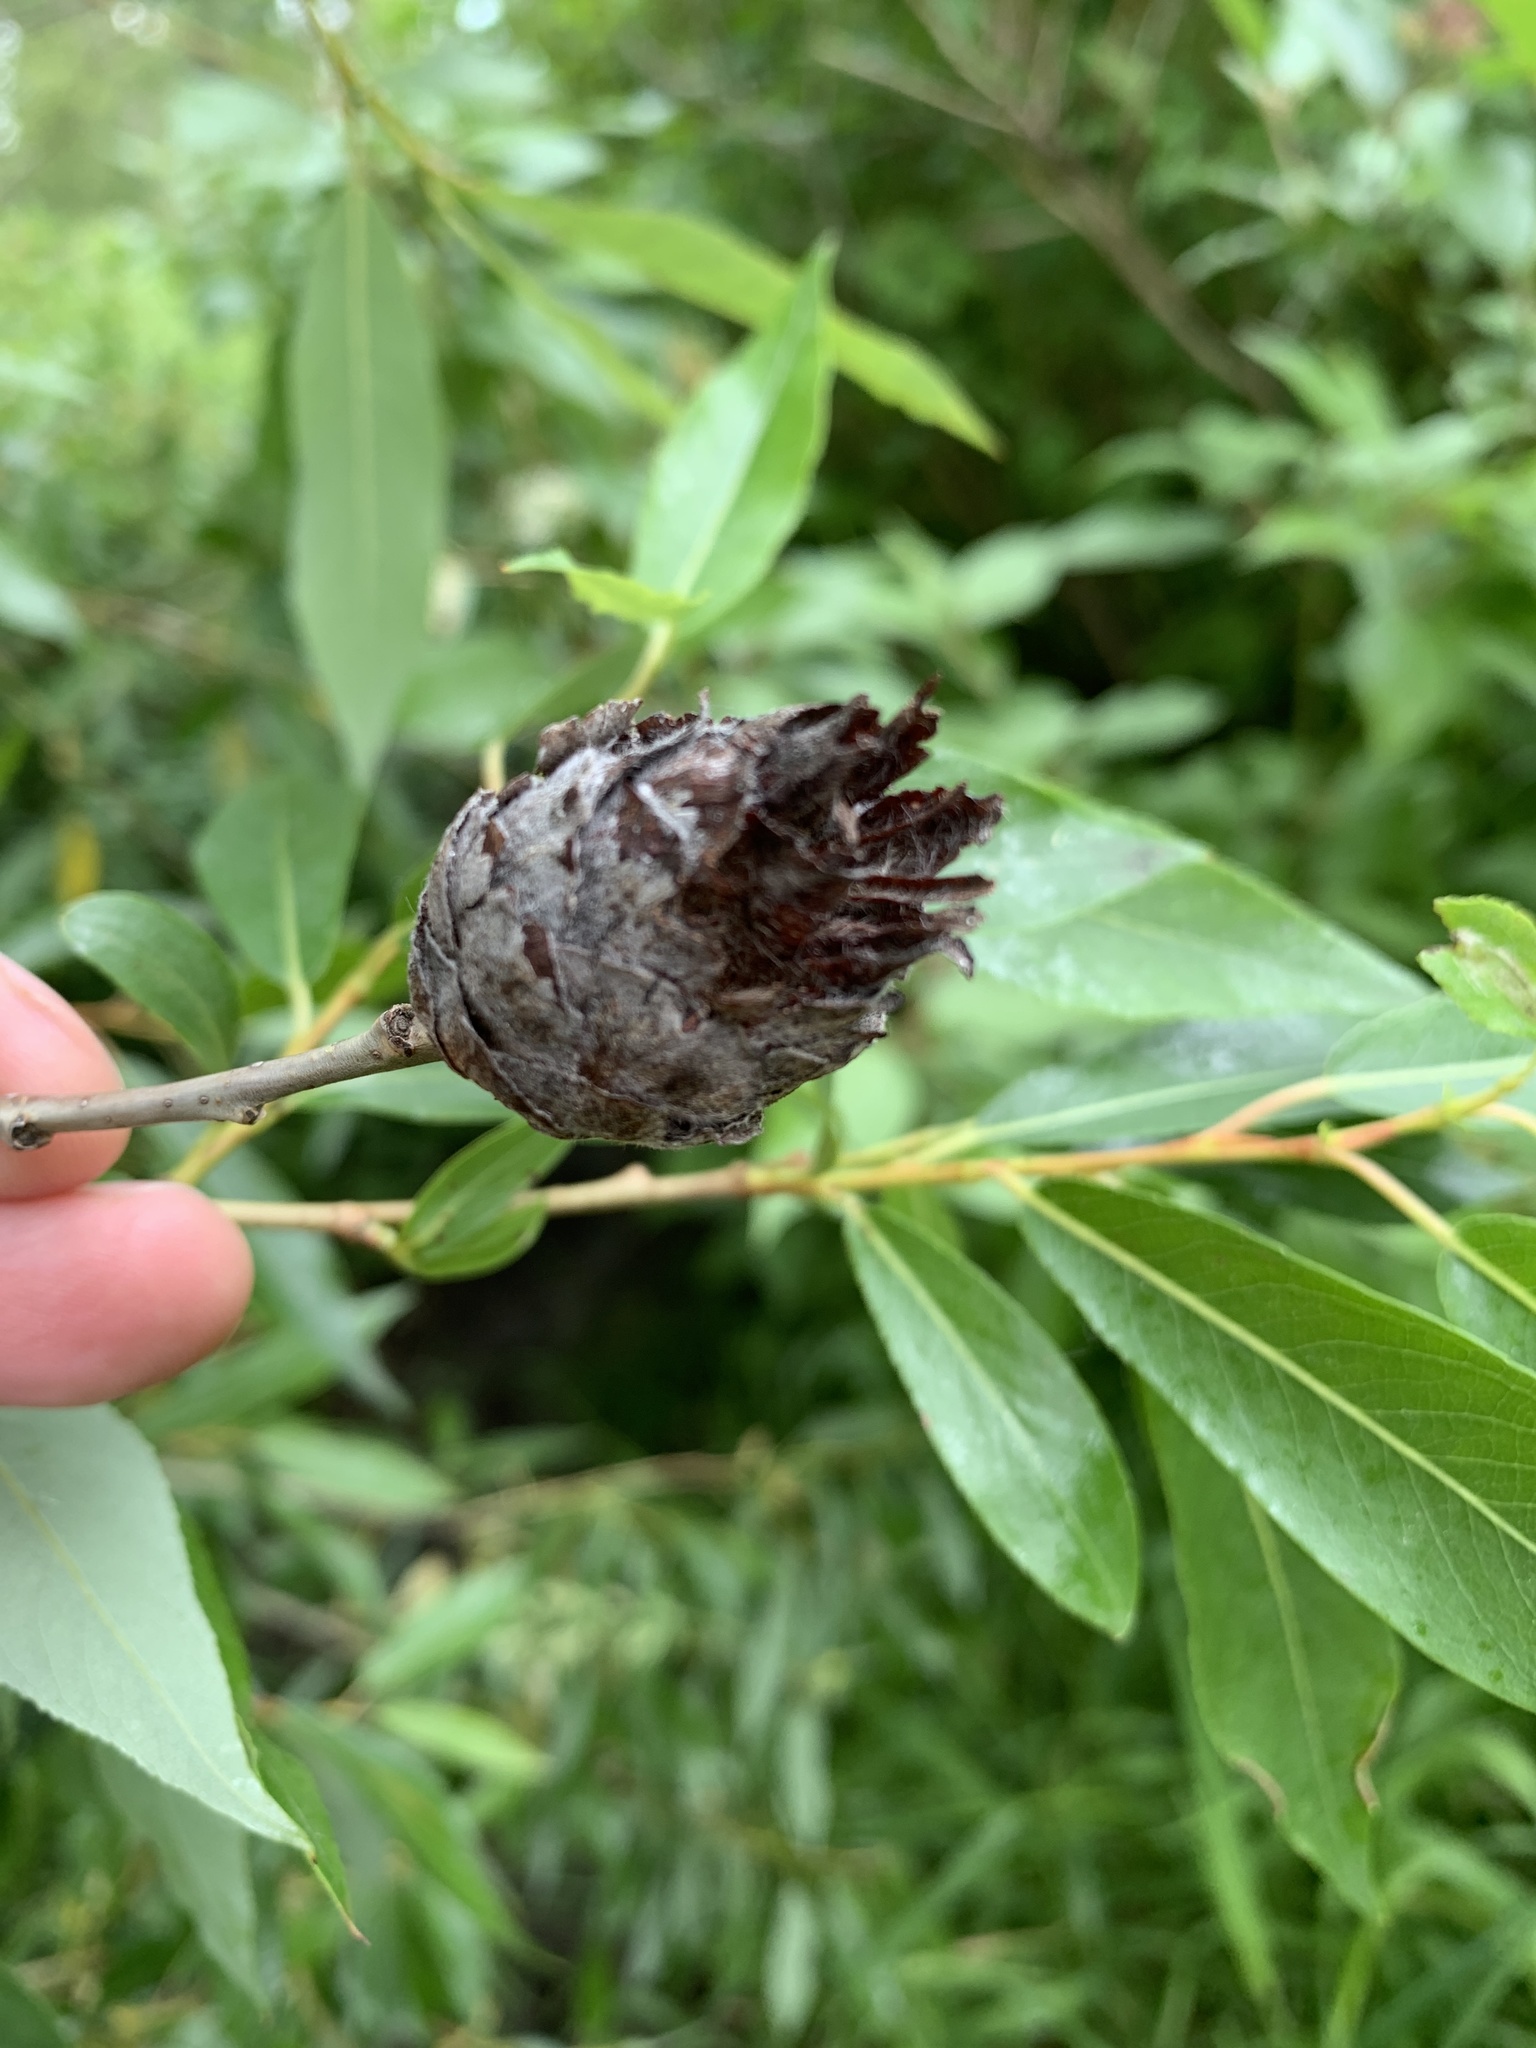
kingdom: Animalia
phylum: Arthropoda
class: Insecta
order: Diptera
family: Cecidomyiidae
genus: Rabdophaga
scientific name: Rabdophaga strobiloides
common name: Willow pinecone gall midge
